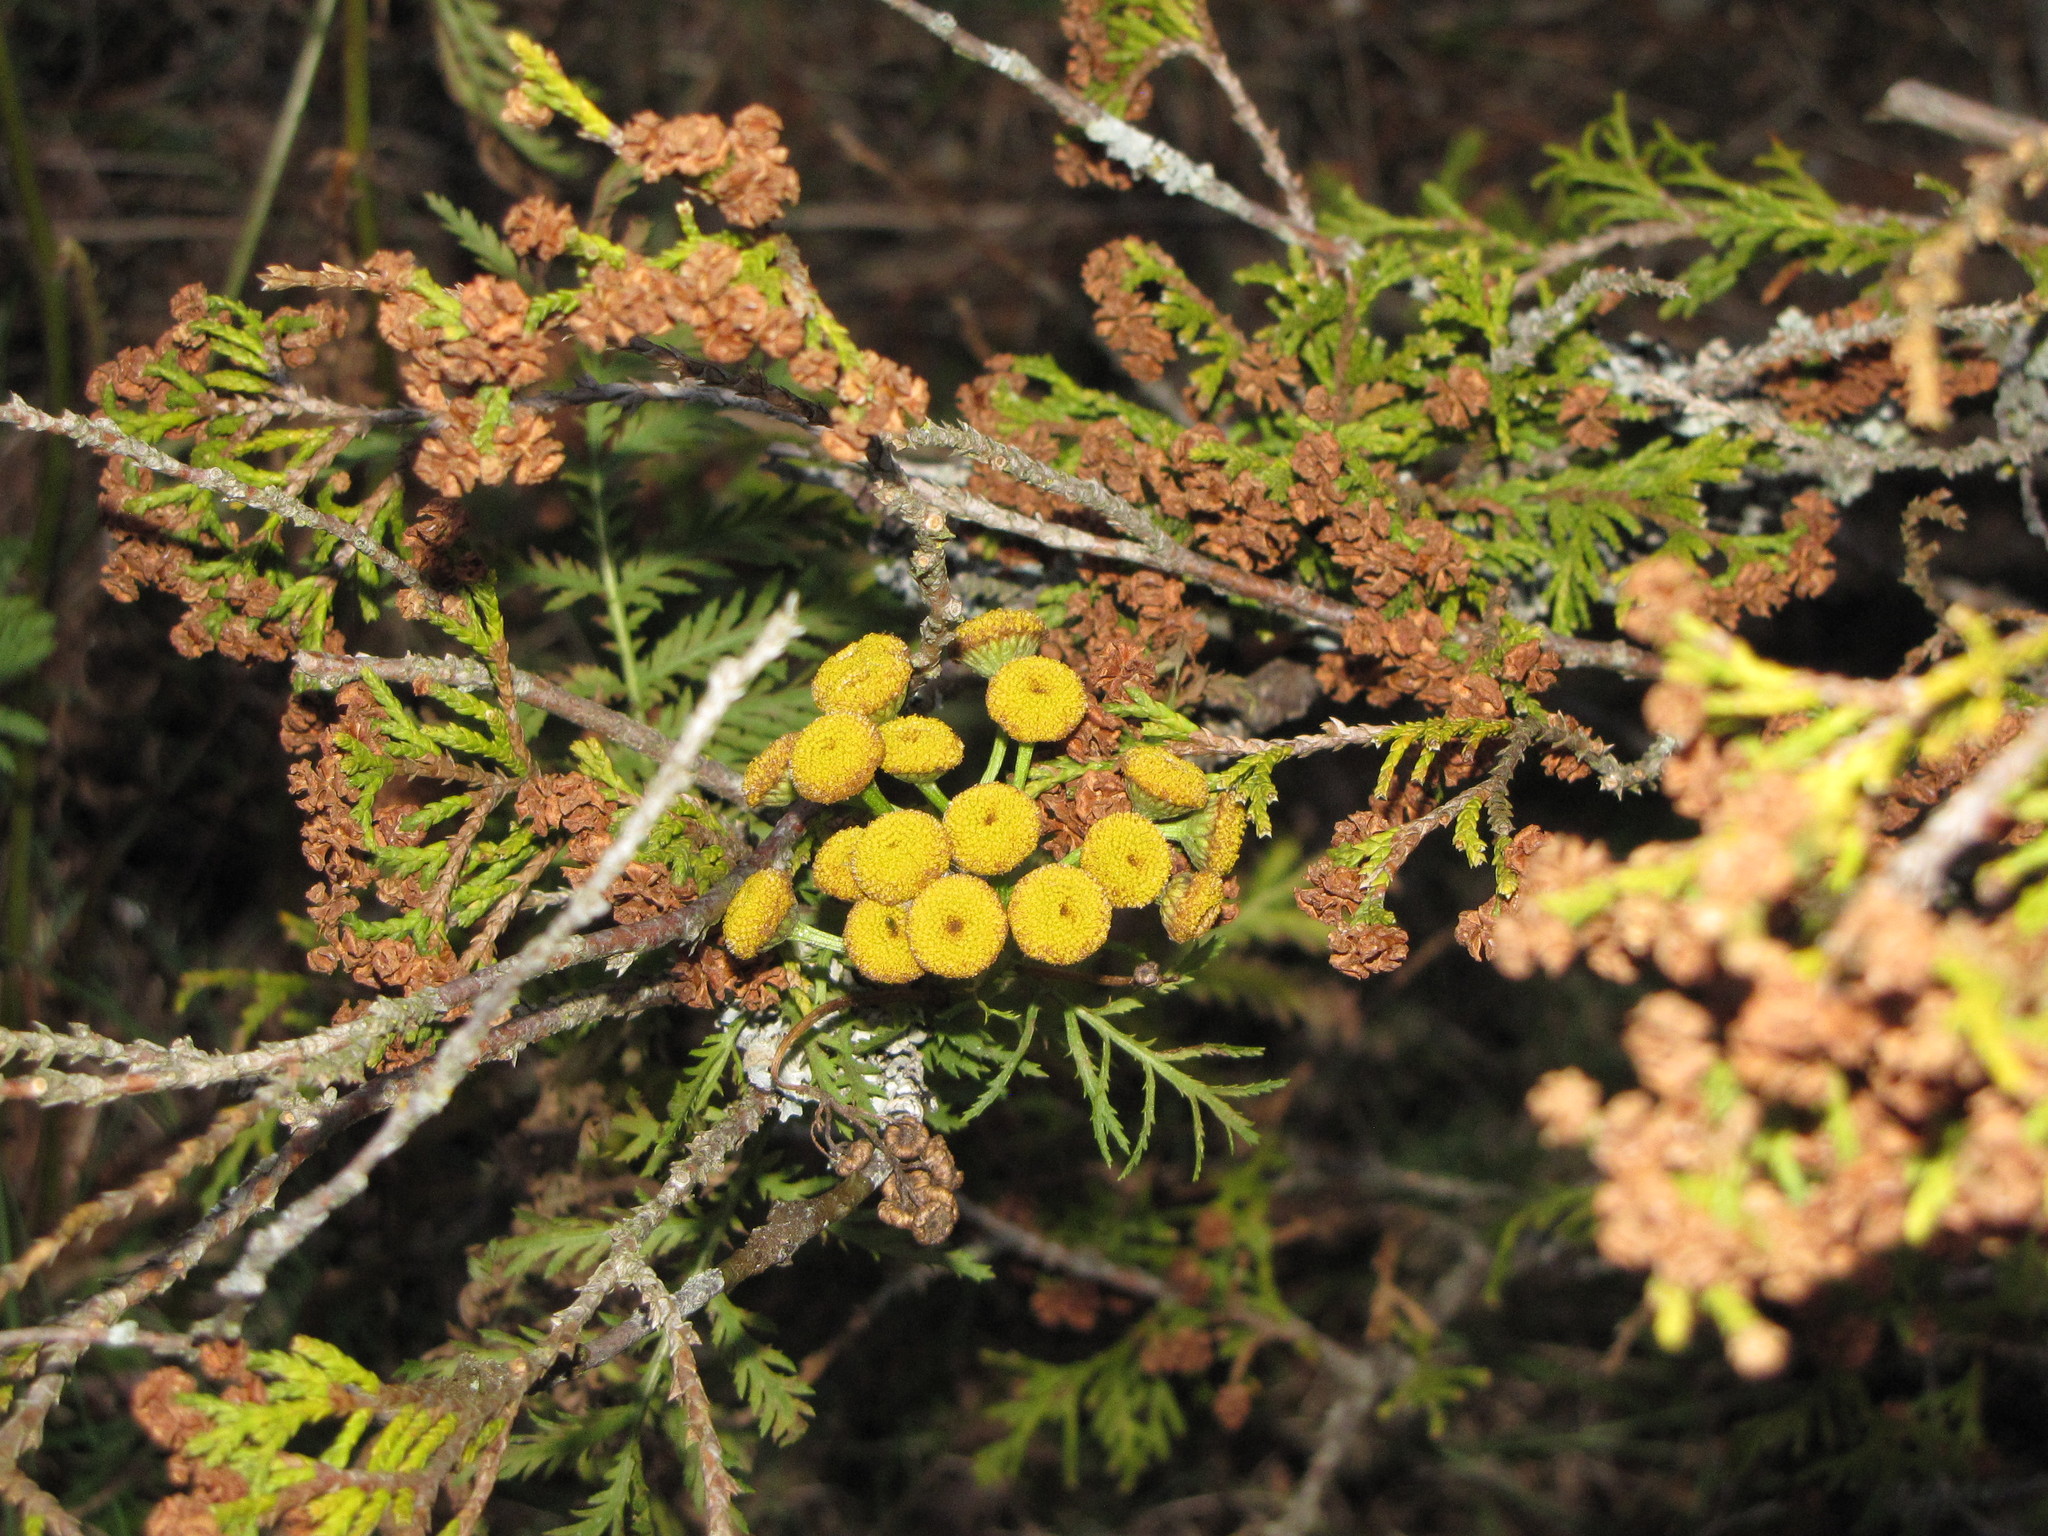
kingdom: Plantae
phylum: Tracheophyta
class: Magnoliopsida
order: Asterales
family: Asteraceae
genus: Tanacetum
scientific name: Tanacetum vulgare
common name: Common tansy
